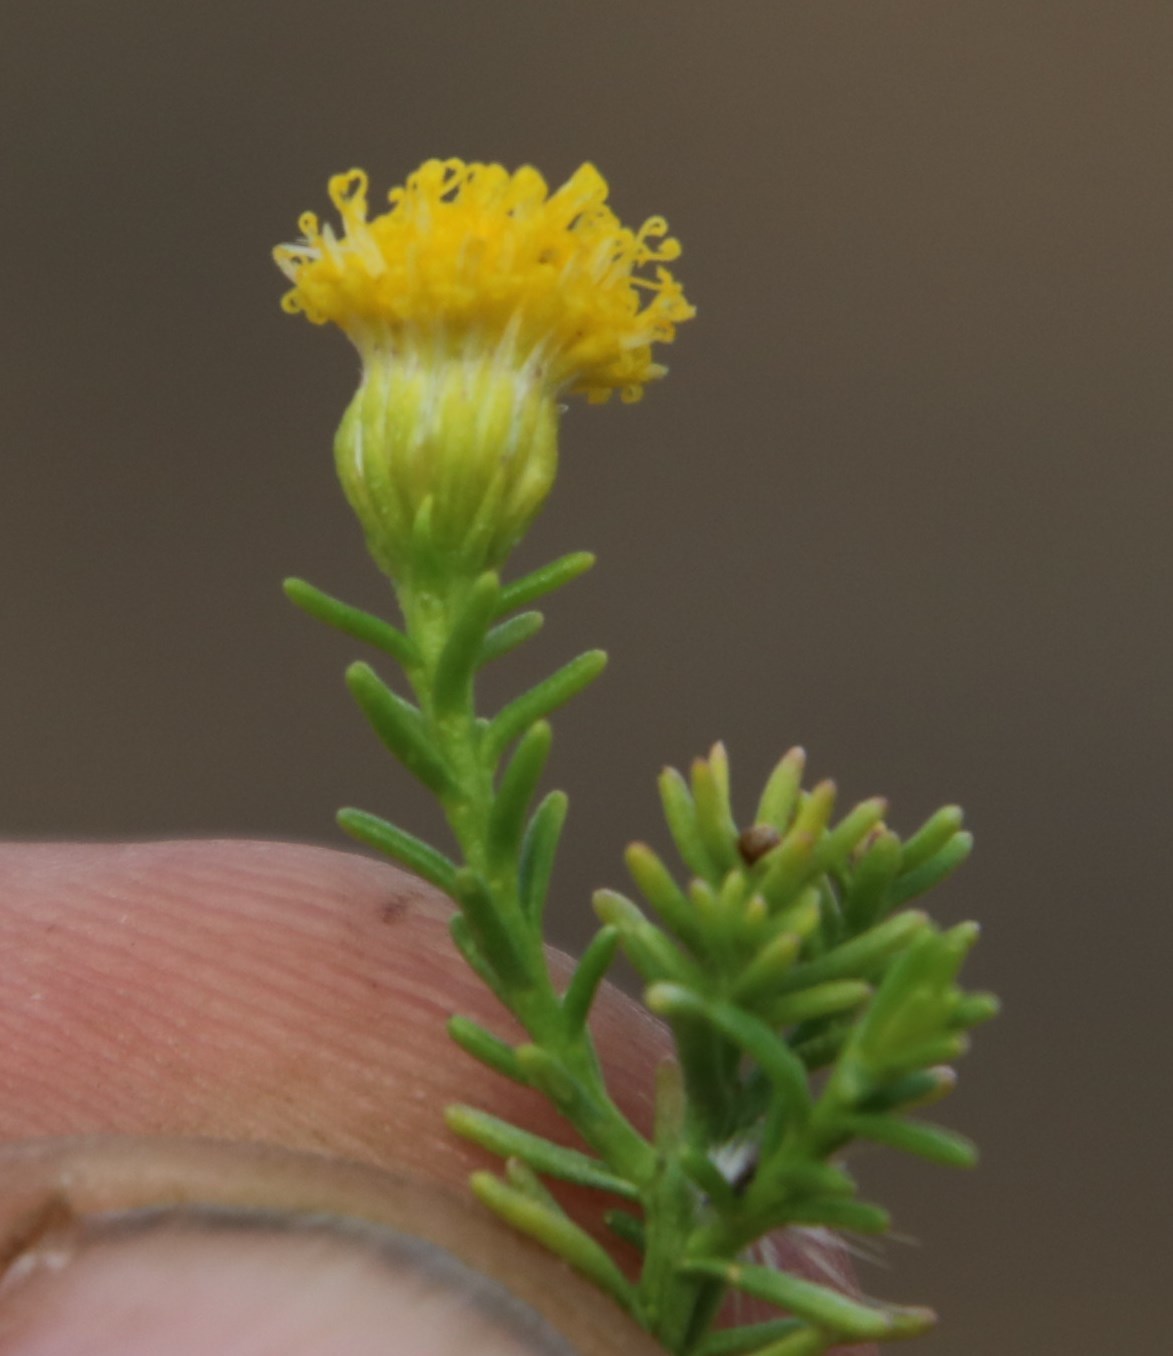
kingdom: Plantae
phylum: Tracheophyta
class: Magnoliopsida
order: Asterales
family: Asteraceae
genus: Chrysocoma
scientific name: Chrysocoma ciliata
